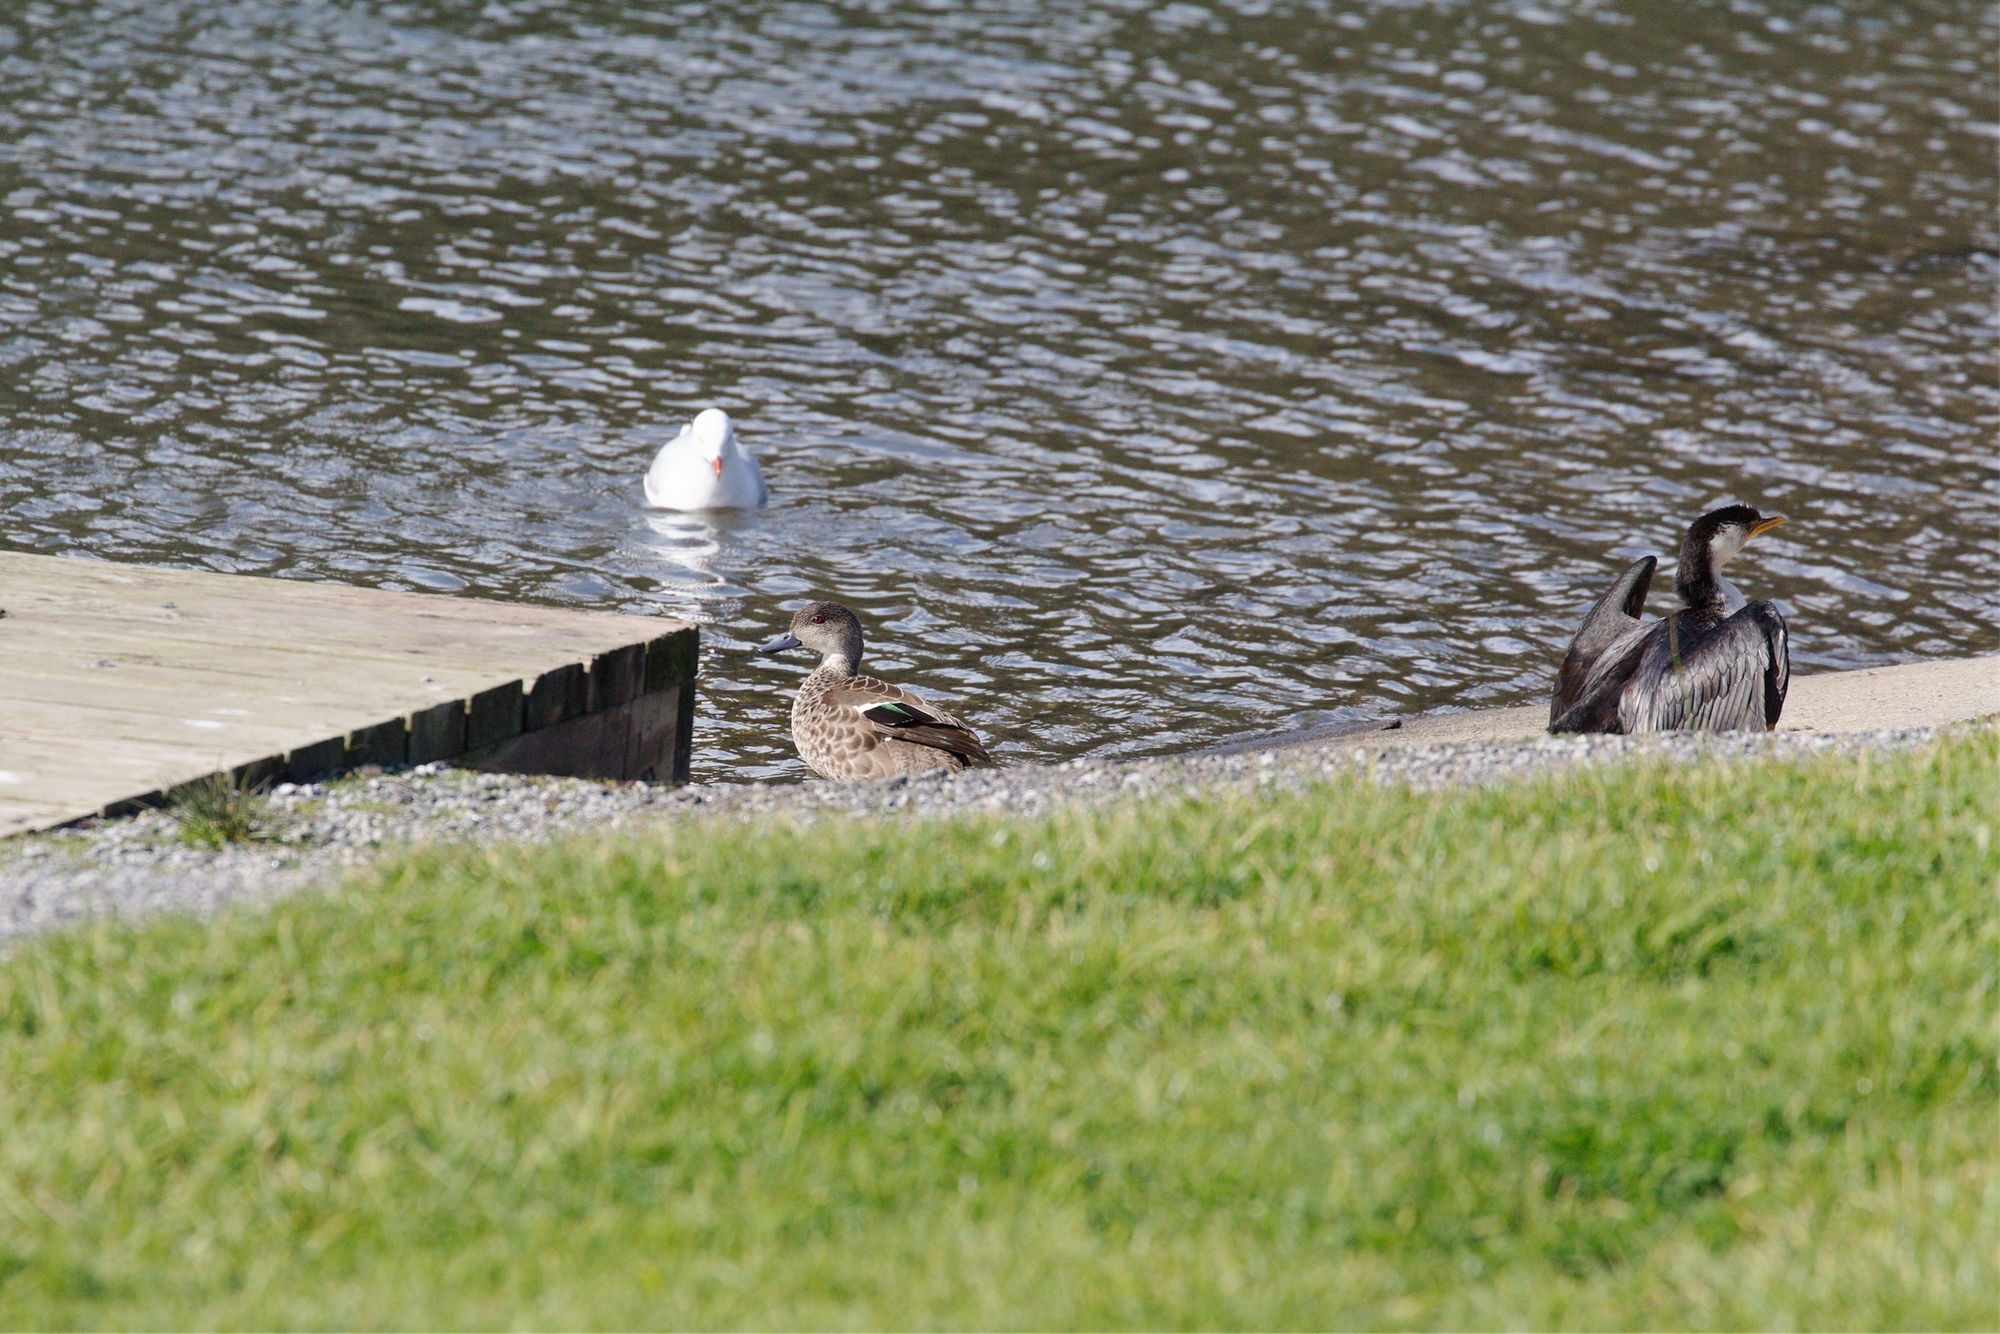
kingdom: Animalia
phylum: Chordata
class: Aves
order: Anseriformes
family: Anatidae
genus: Anas
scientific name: Anas castanea
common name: Chestnut teal
